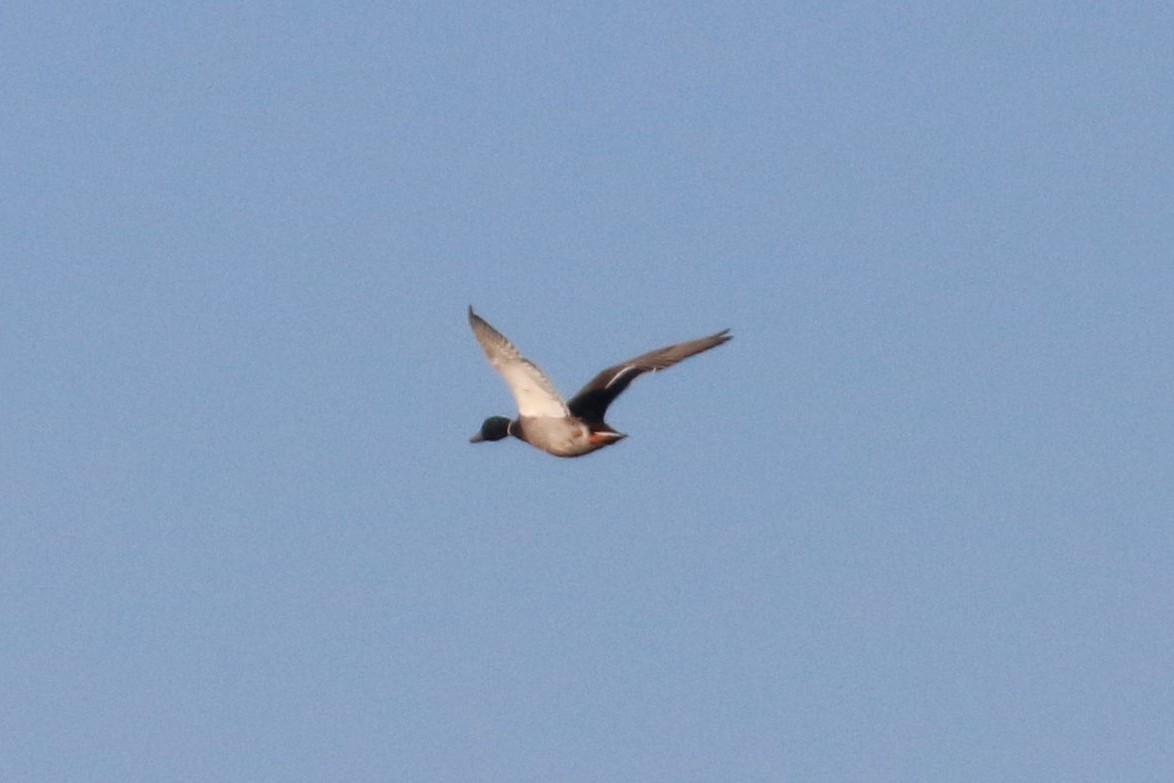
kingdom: Animalia
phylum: Chordata
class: Aves
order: Anseriformes
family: Anatidae
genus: Anas
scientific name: Anas platyrhynchos
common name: Mallard
